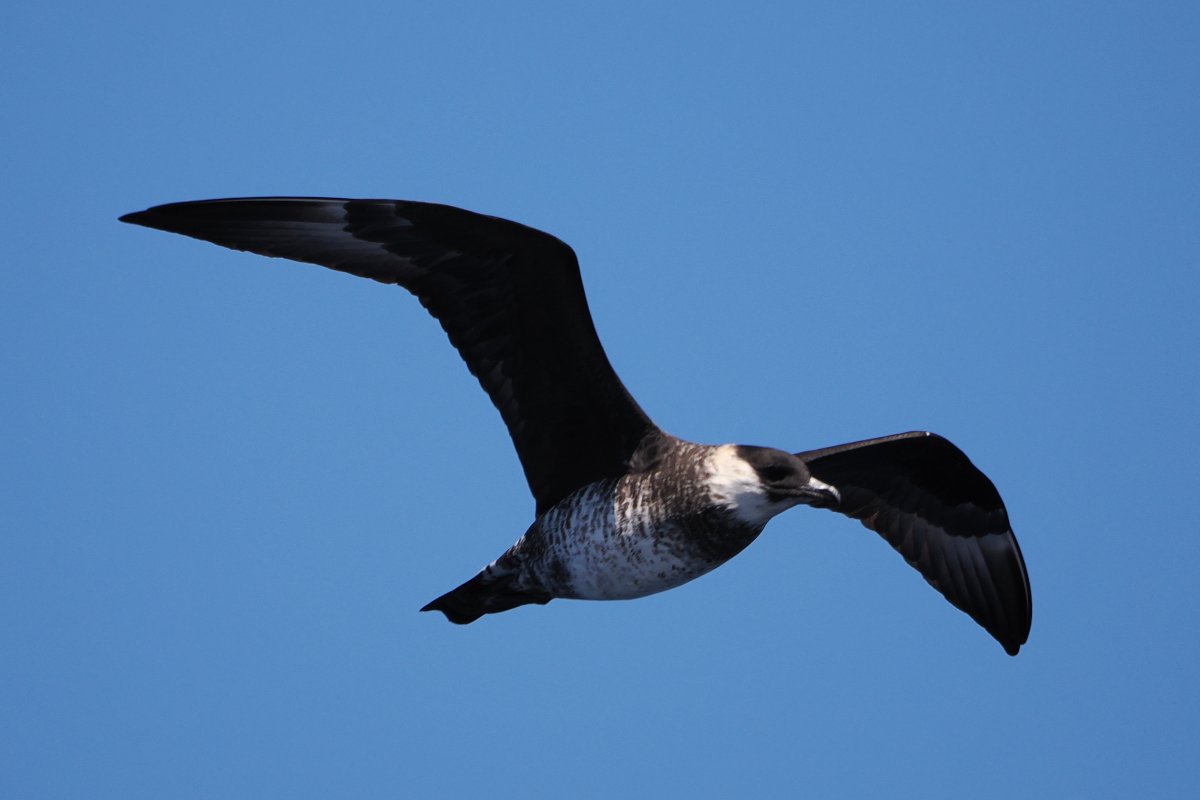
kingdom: Animalia
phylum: Chordata
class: Aves
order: Charadriiformes
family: Stercorariidae
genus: Stercorarius
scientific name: Stercorarius pomarinus
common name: Pomarine jaeger
